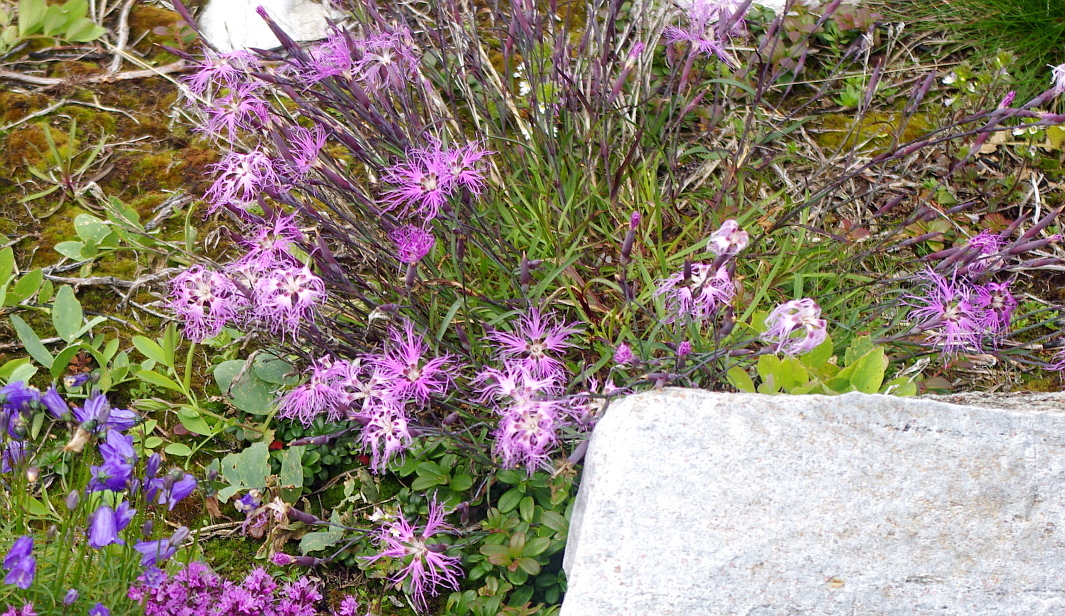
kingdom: Plantae
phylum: Tracheophyta
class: Magnoliopsida
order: Caryophyllales
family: Caryophyllaceae
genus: Dianthus
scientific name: Dianthus superbus
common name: Fringed pink
